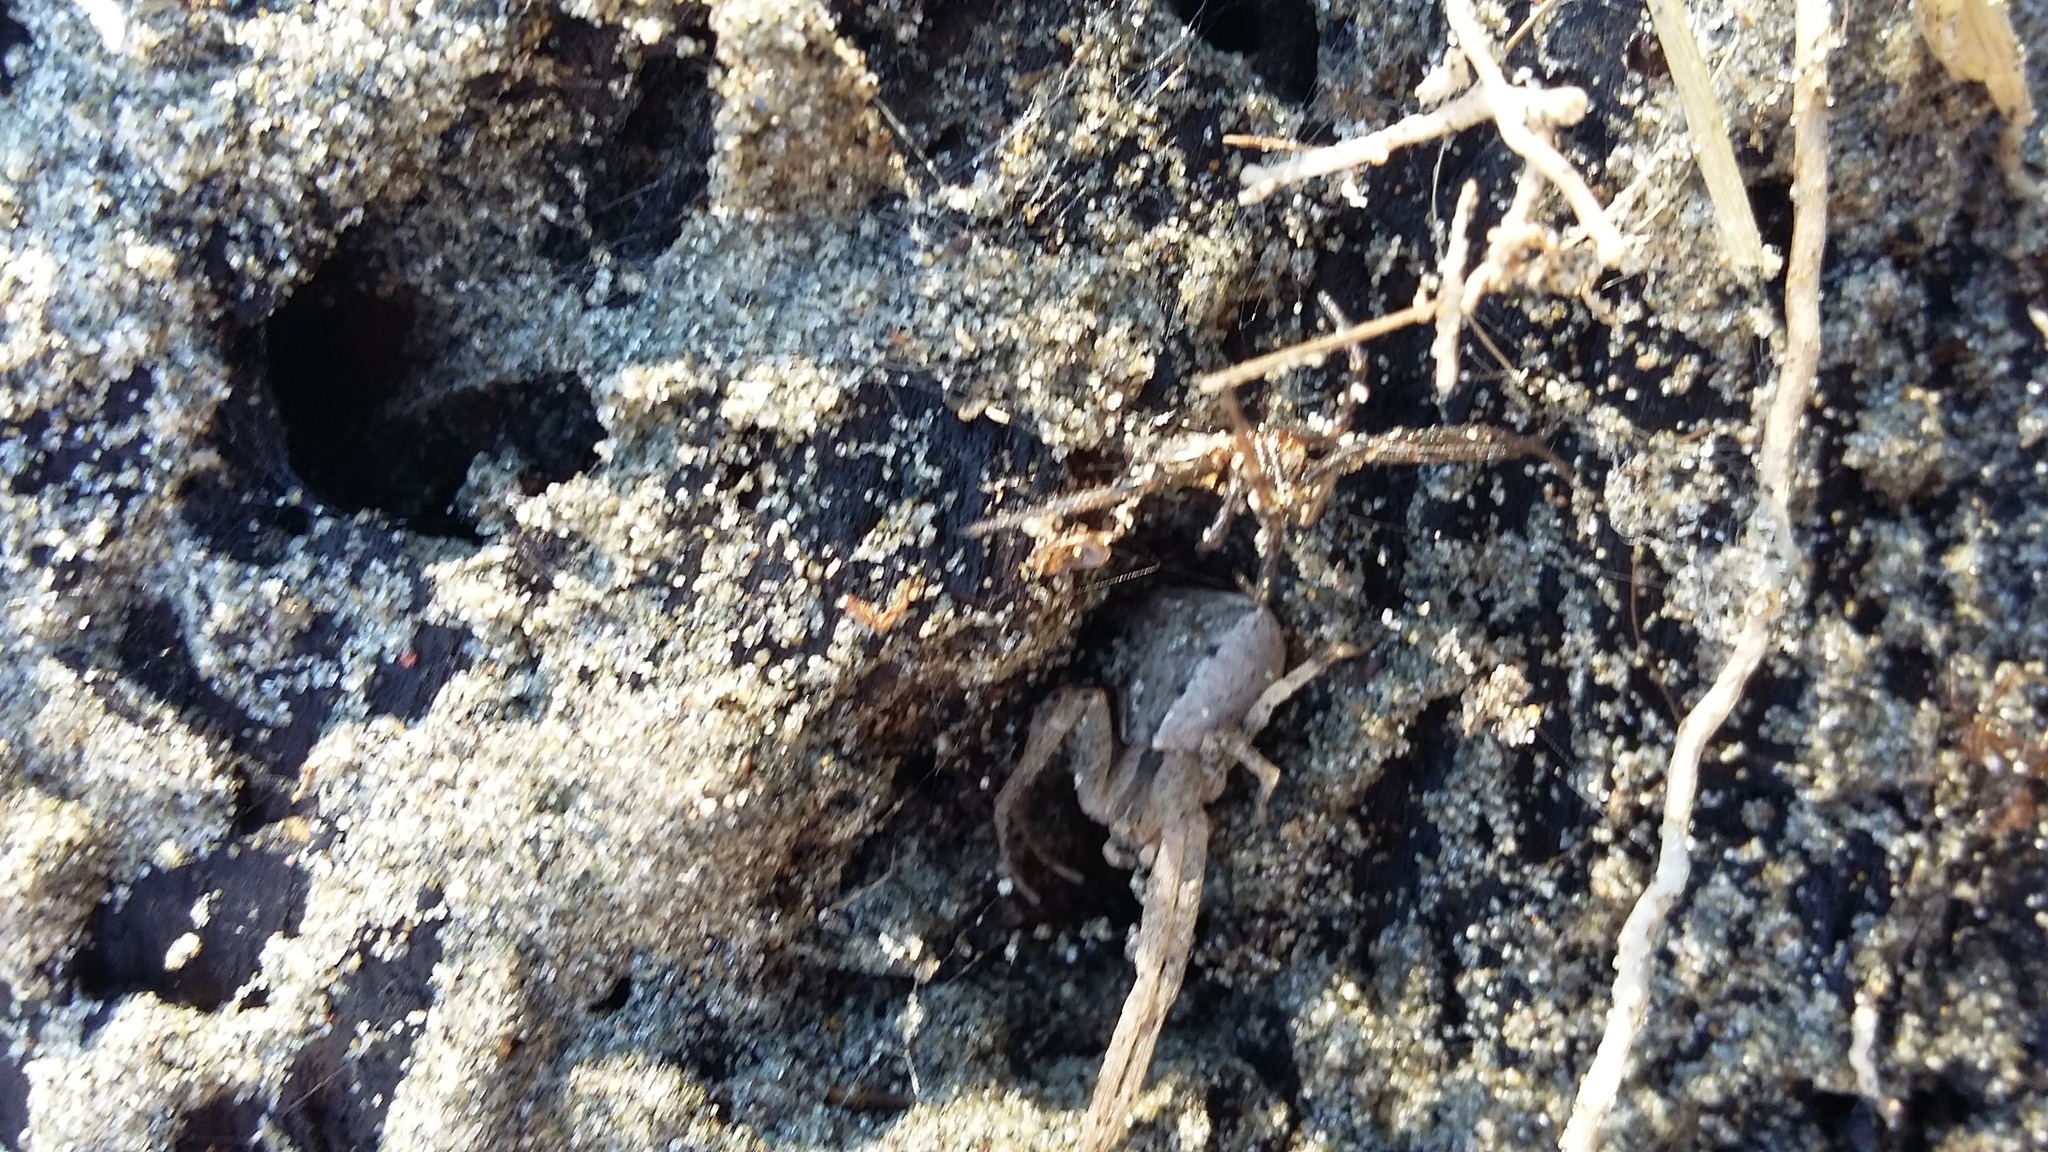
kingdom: Animalia
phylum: Arthropoda
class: Arachnida
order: Araneae
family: Thomisidae
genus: Sidymella
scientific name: Sidymella trapezia
